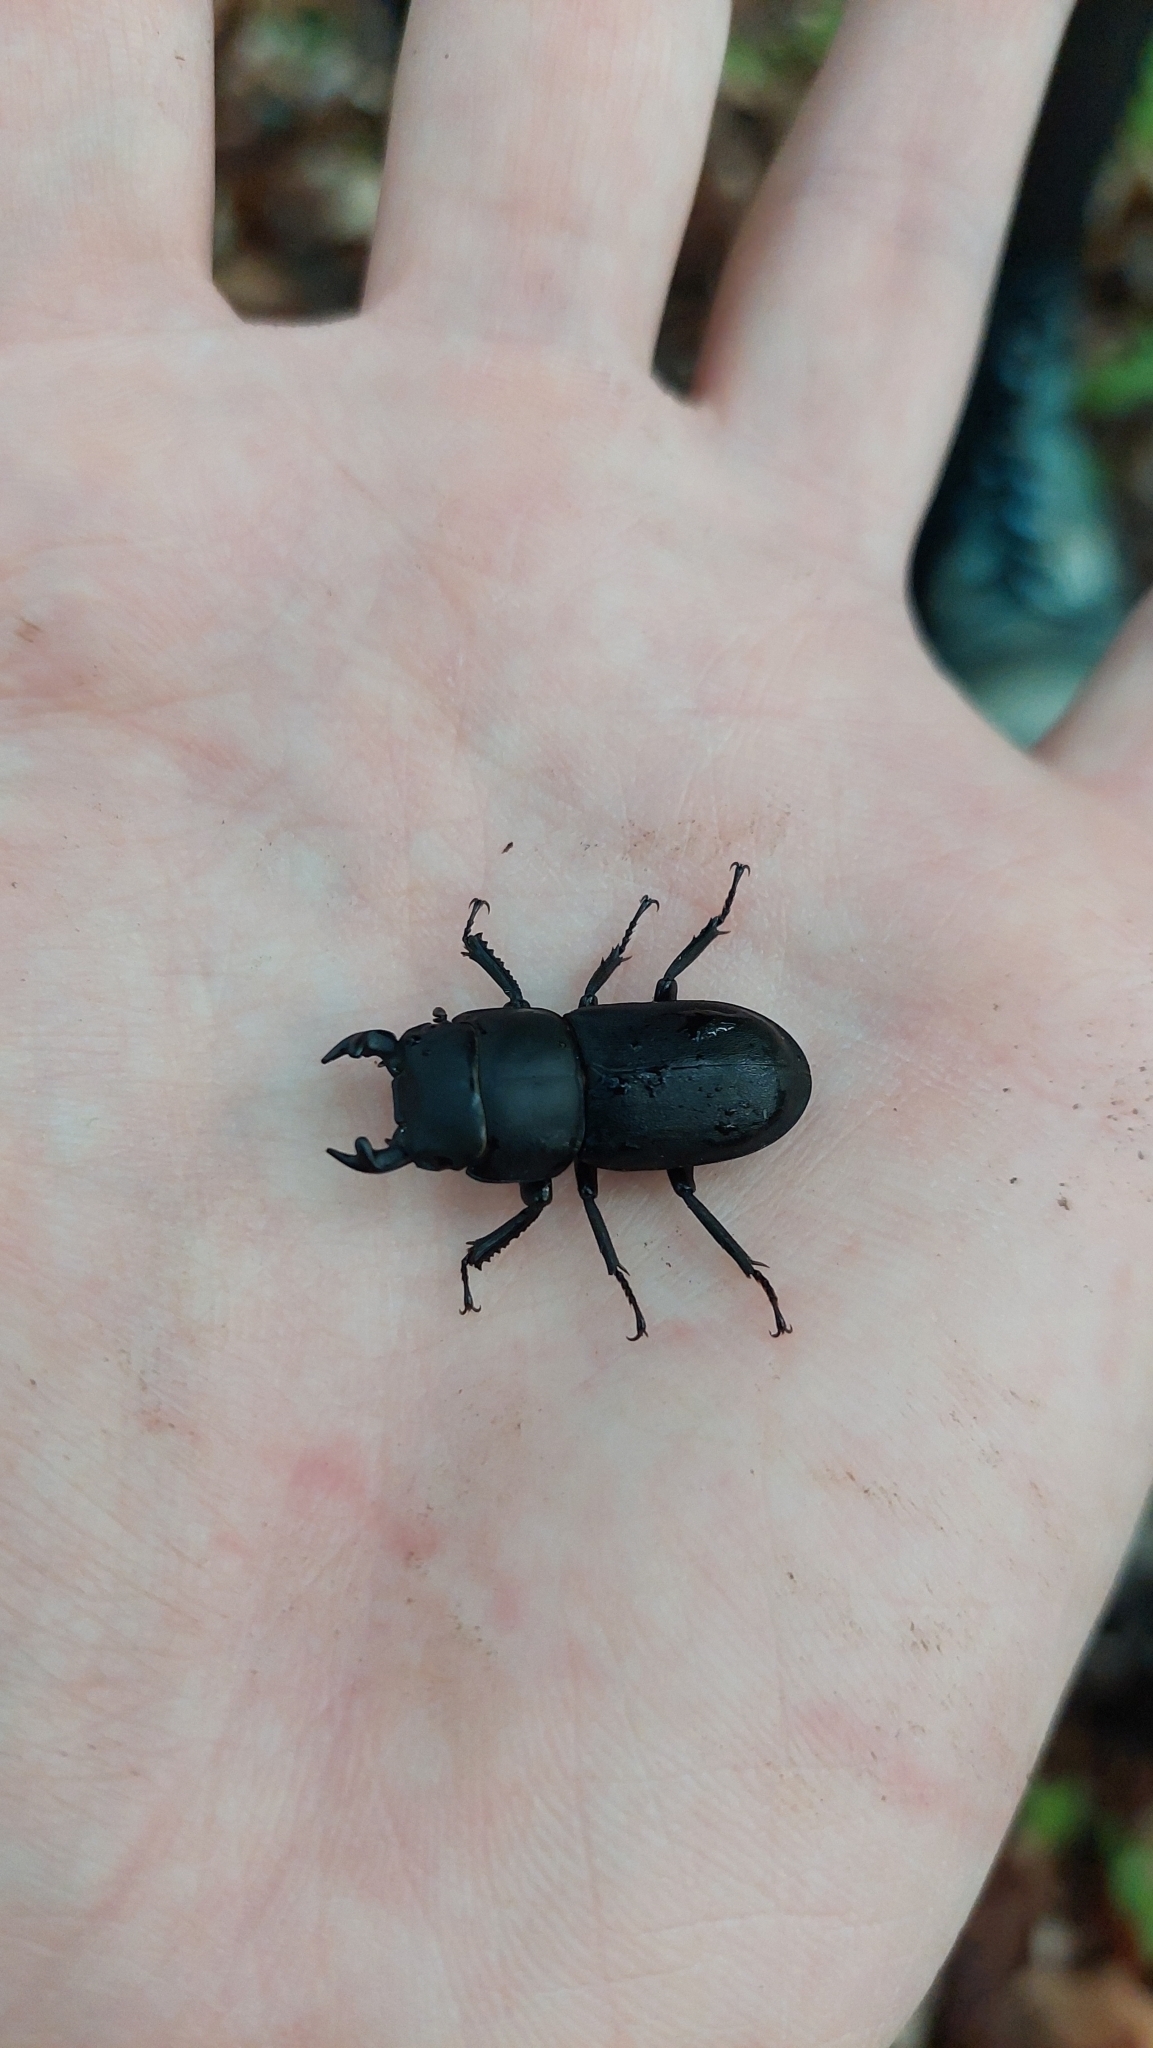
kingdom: Animalia
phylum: Arthropoda
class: Insecta
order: Coleoptera
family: Lucanidae
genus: Dorcus
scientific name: Dorcus parallelipipedus
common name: Lesser stag beetle
